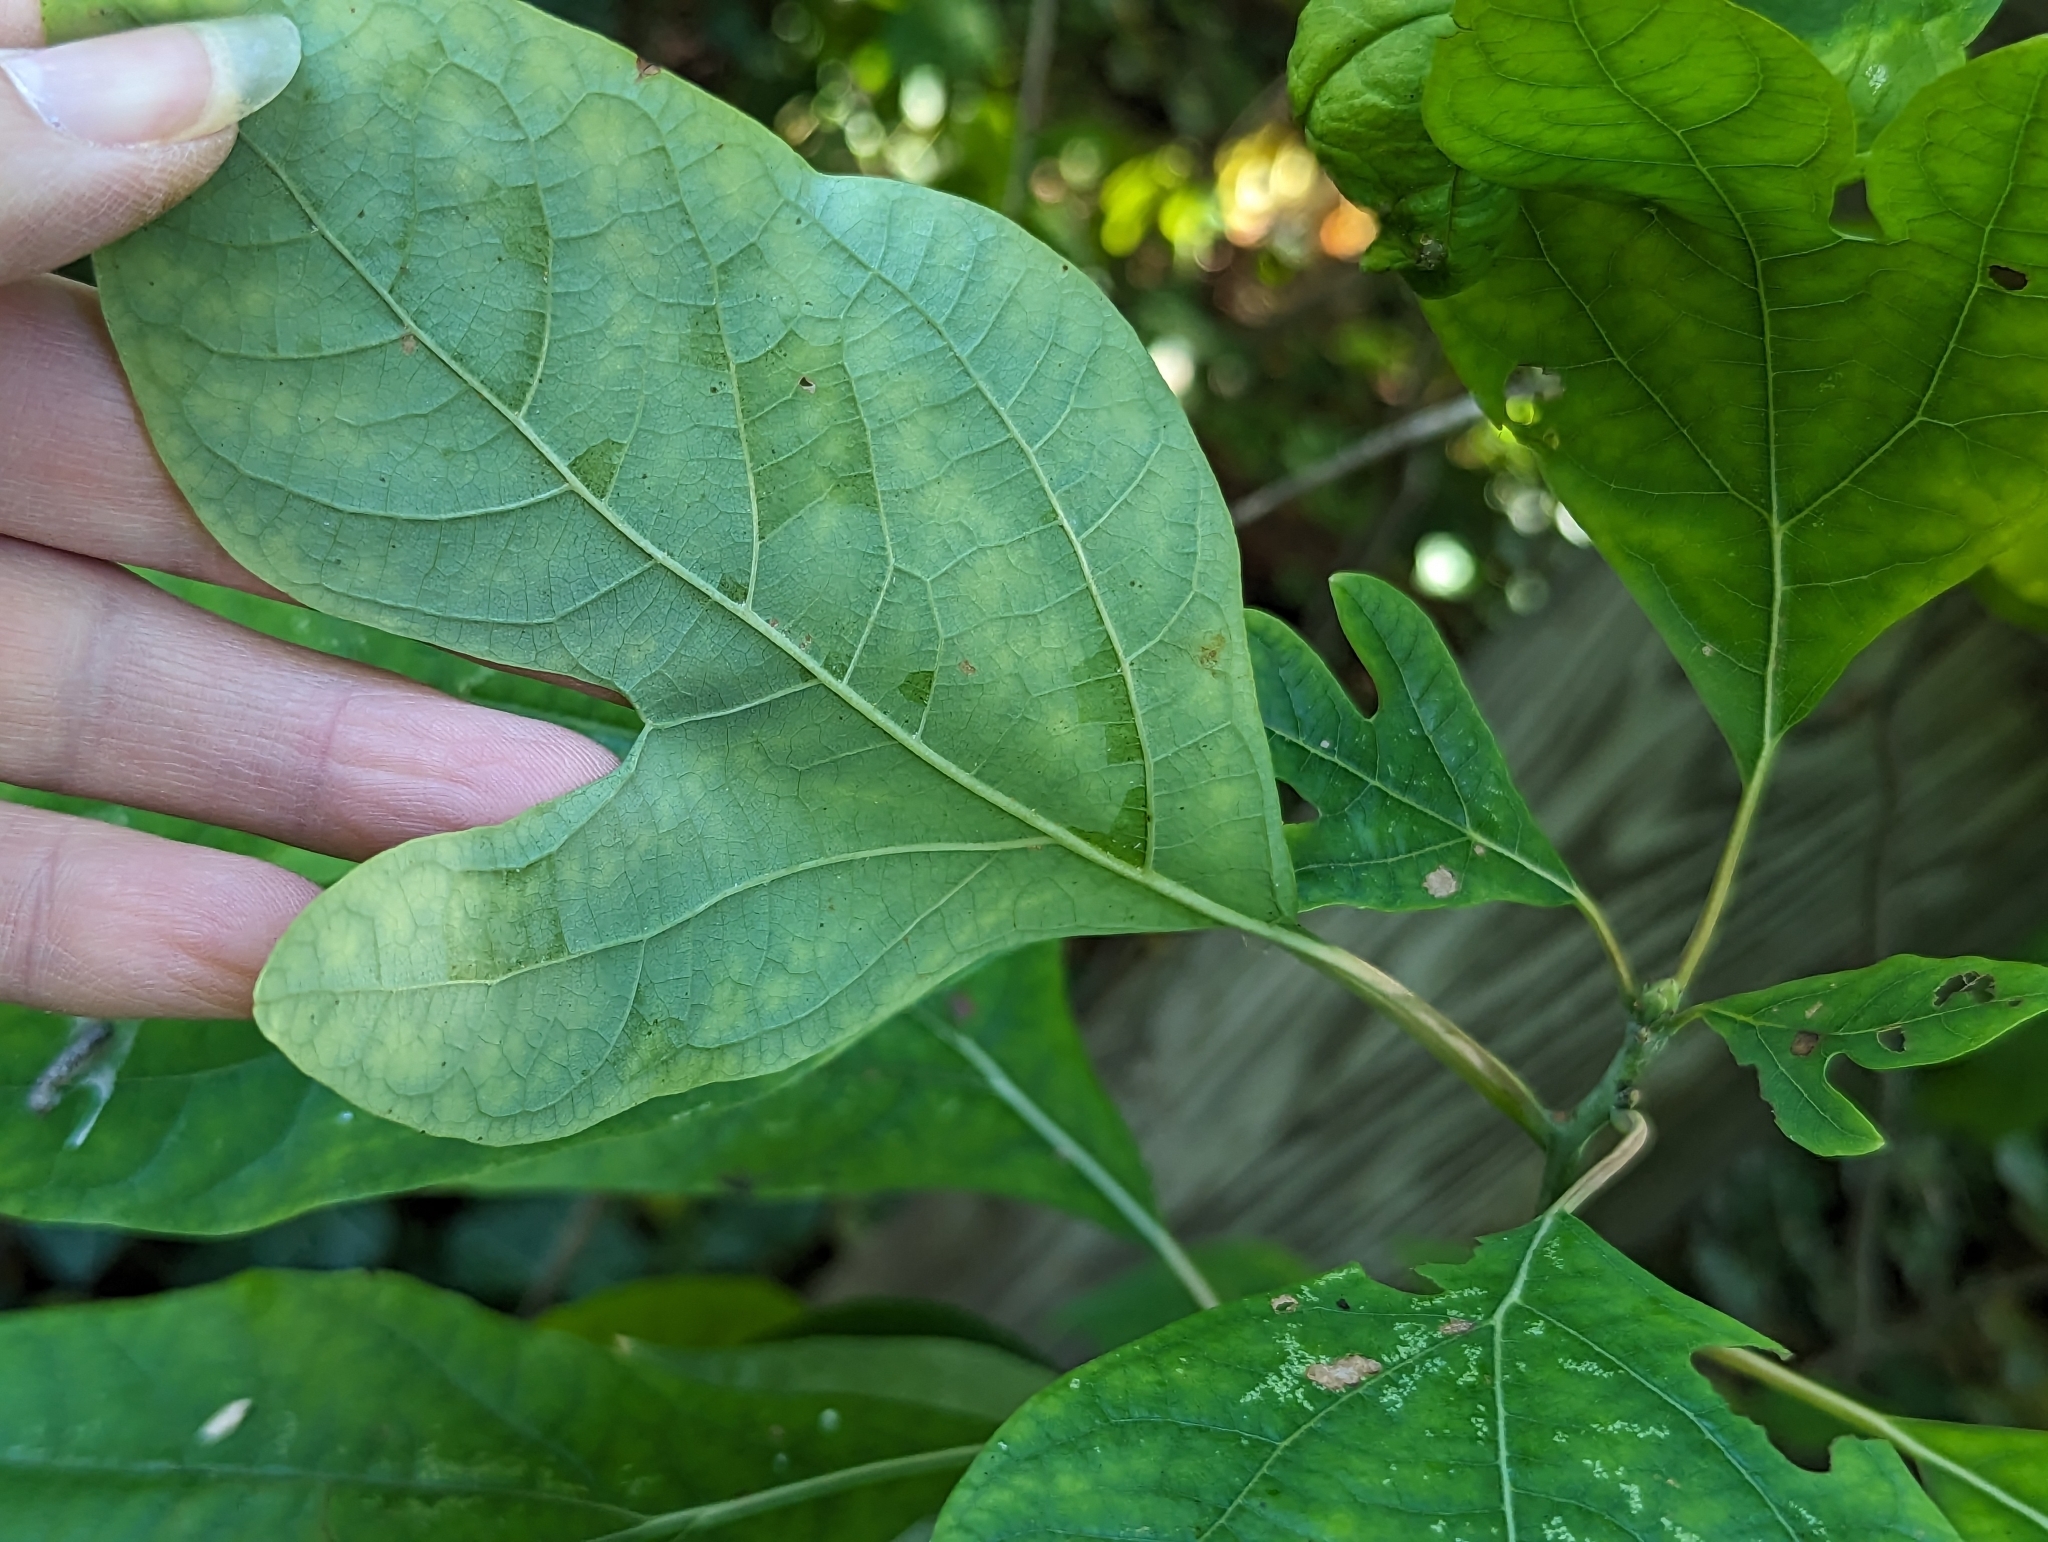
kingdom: Plantae
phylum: Tracheophyta
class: Magnoliopsida
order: Laurales
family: Lauraceae
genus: Sassafras
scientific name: Sassafras albidum
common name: Sassafras
